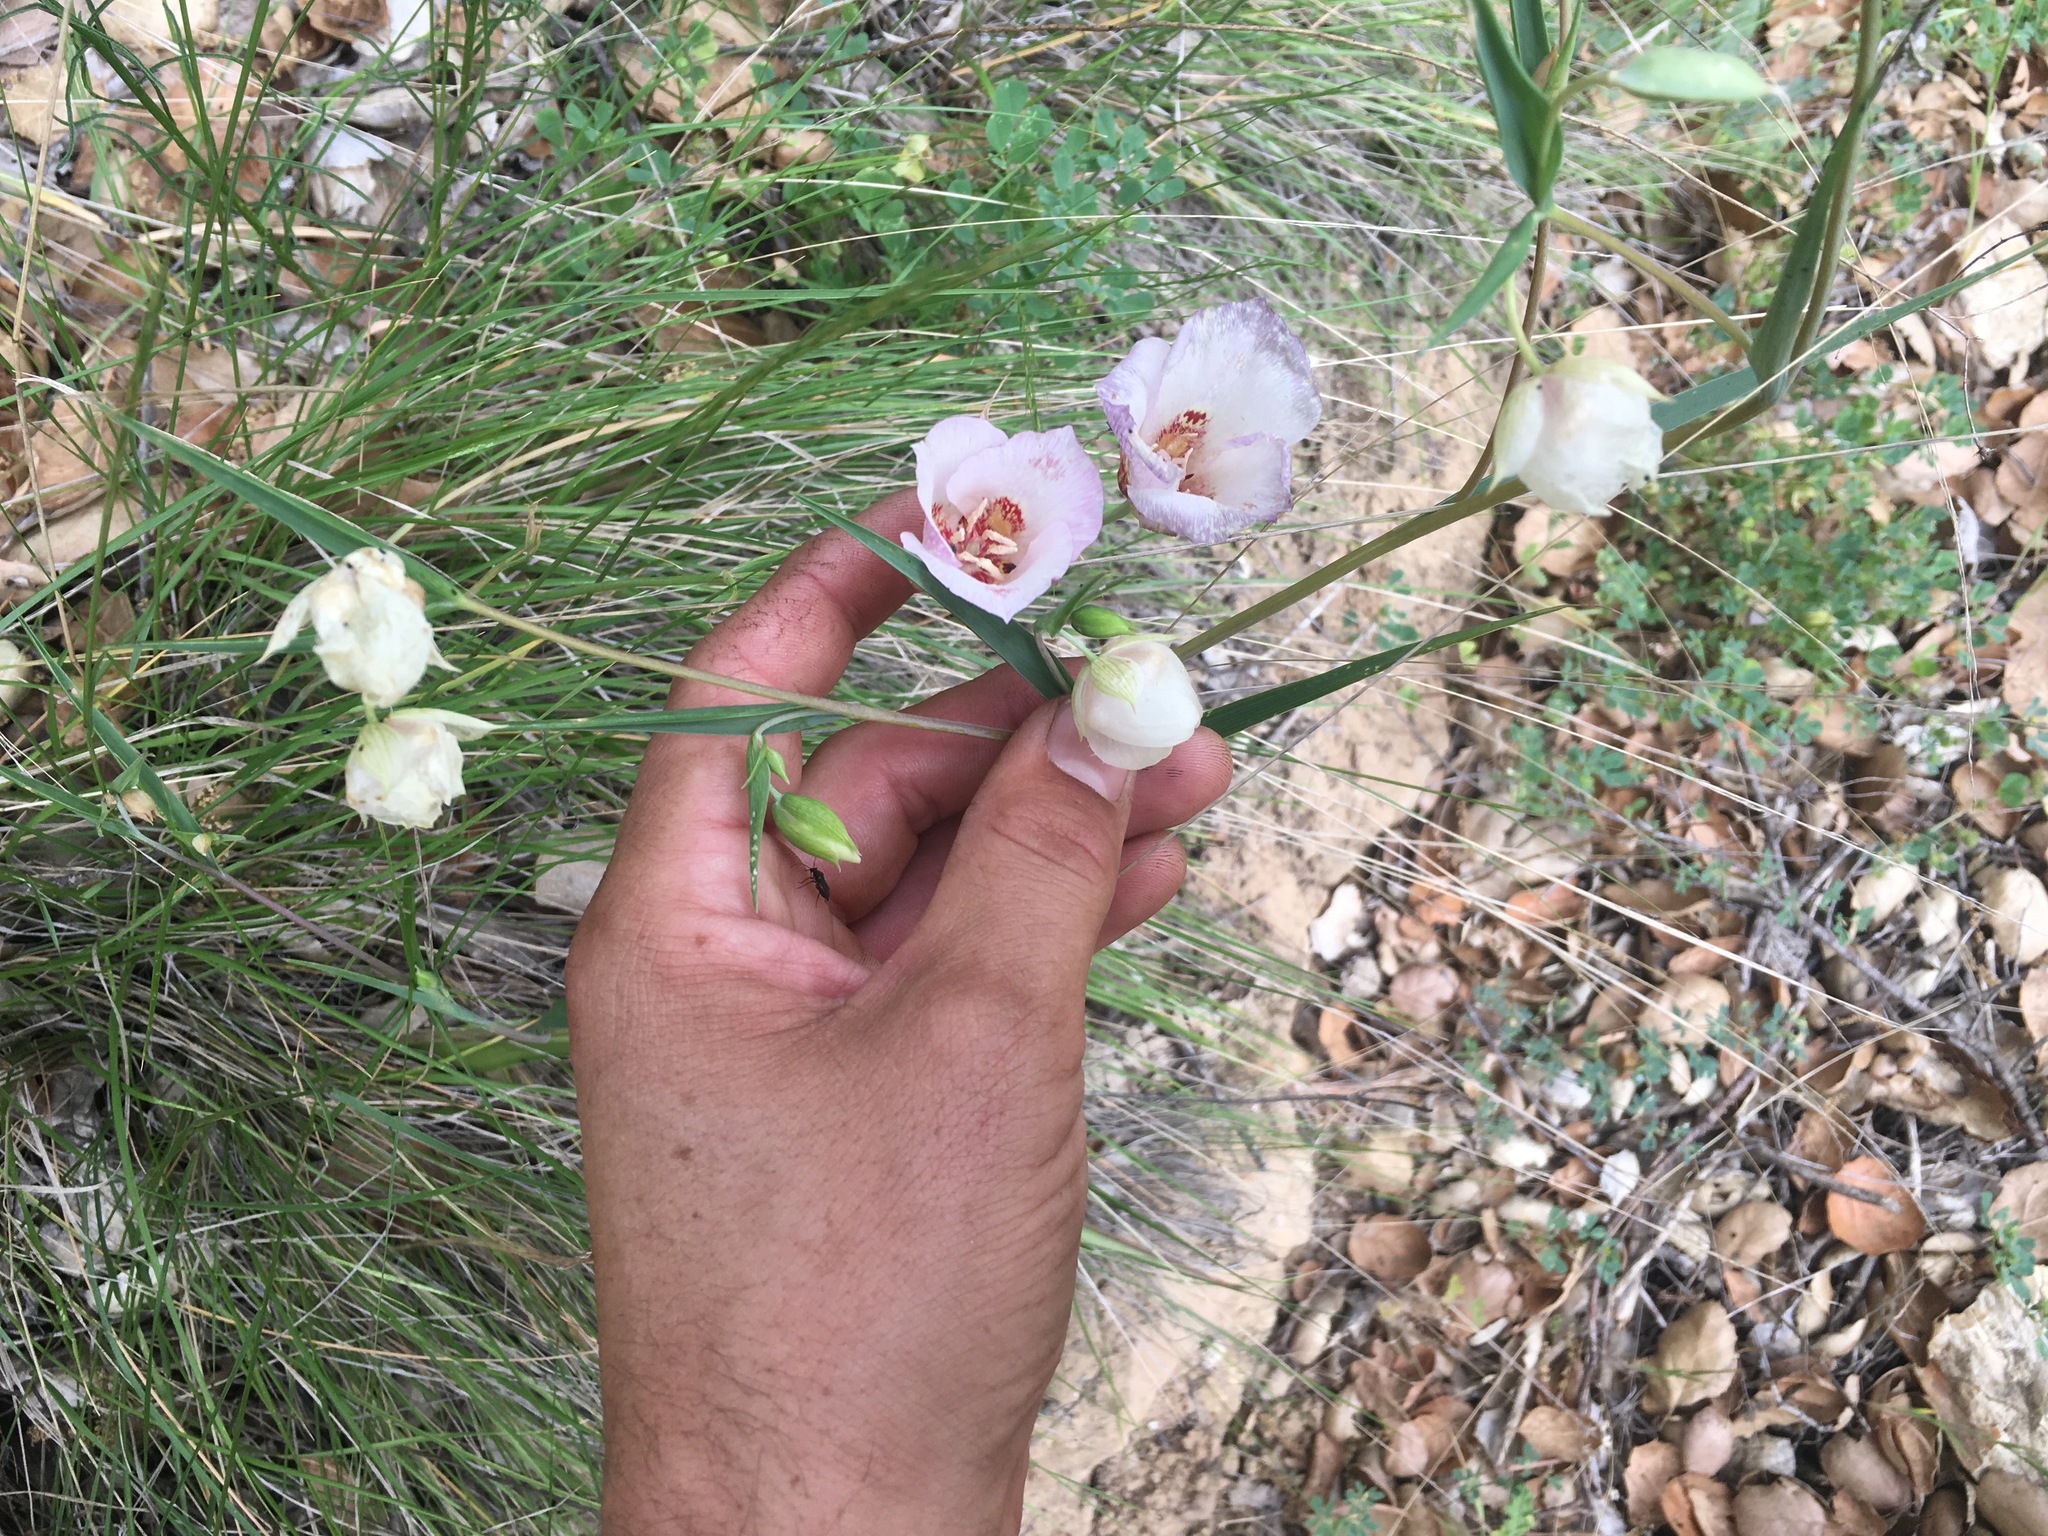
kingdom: Plantae
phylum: Tracheophyta
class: Liliopsida
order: Liliales
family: Liliaceae
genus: Calochortus
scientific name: Calochortus venustus
